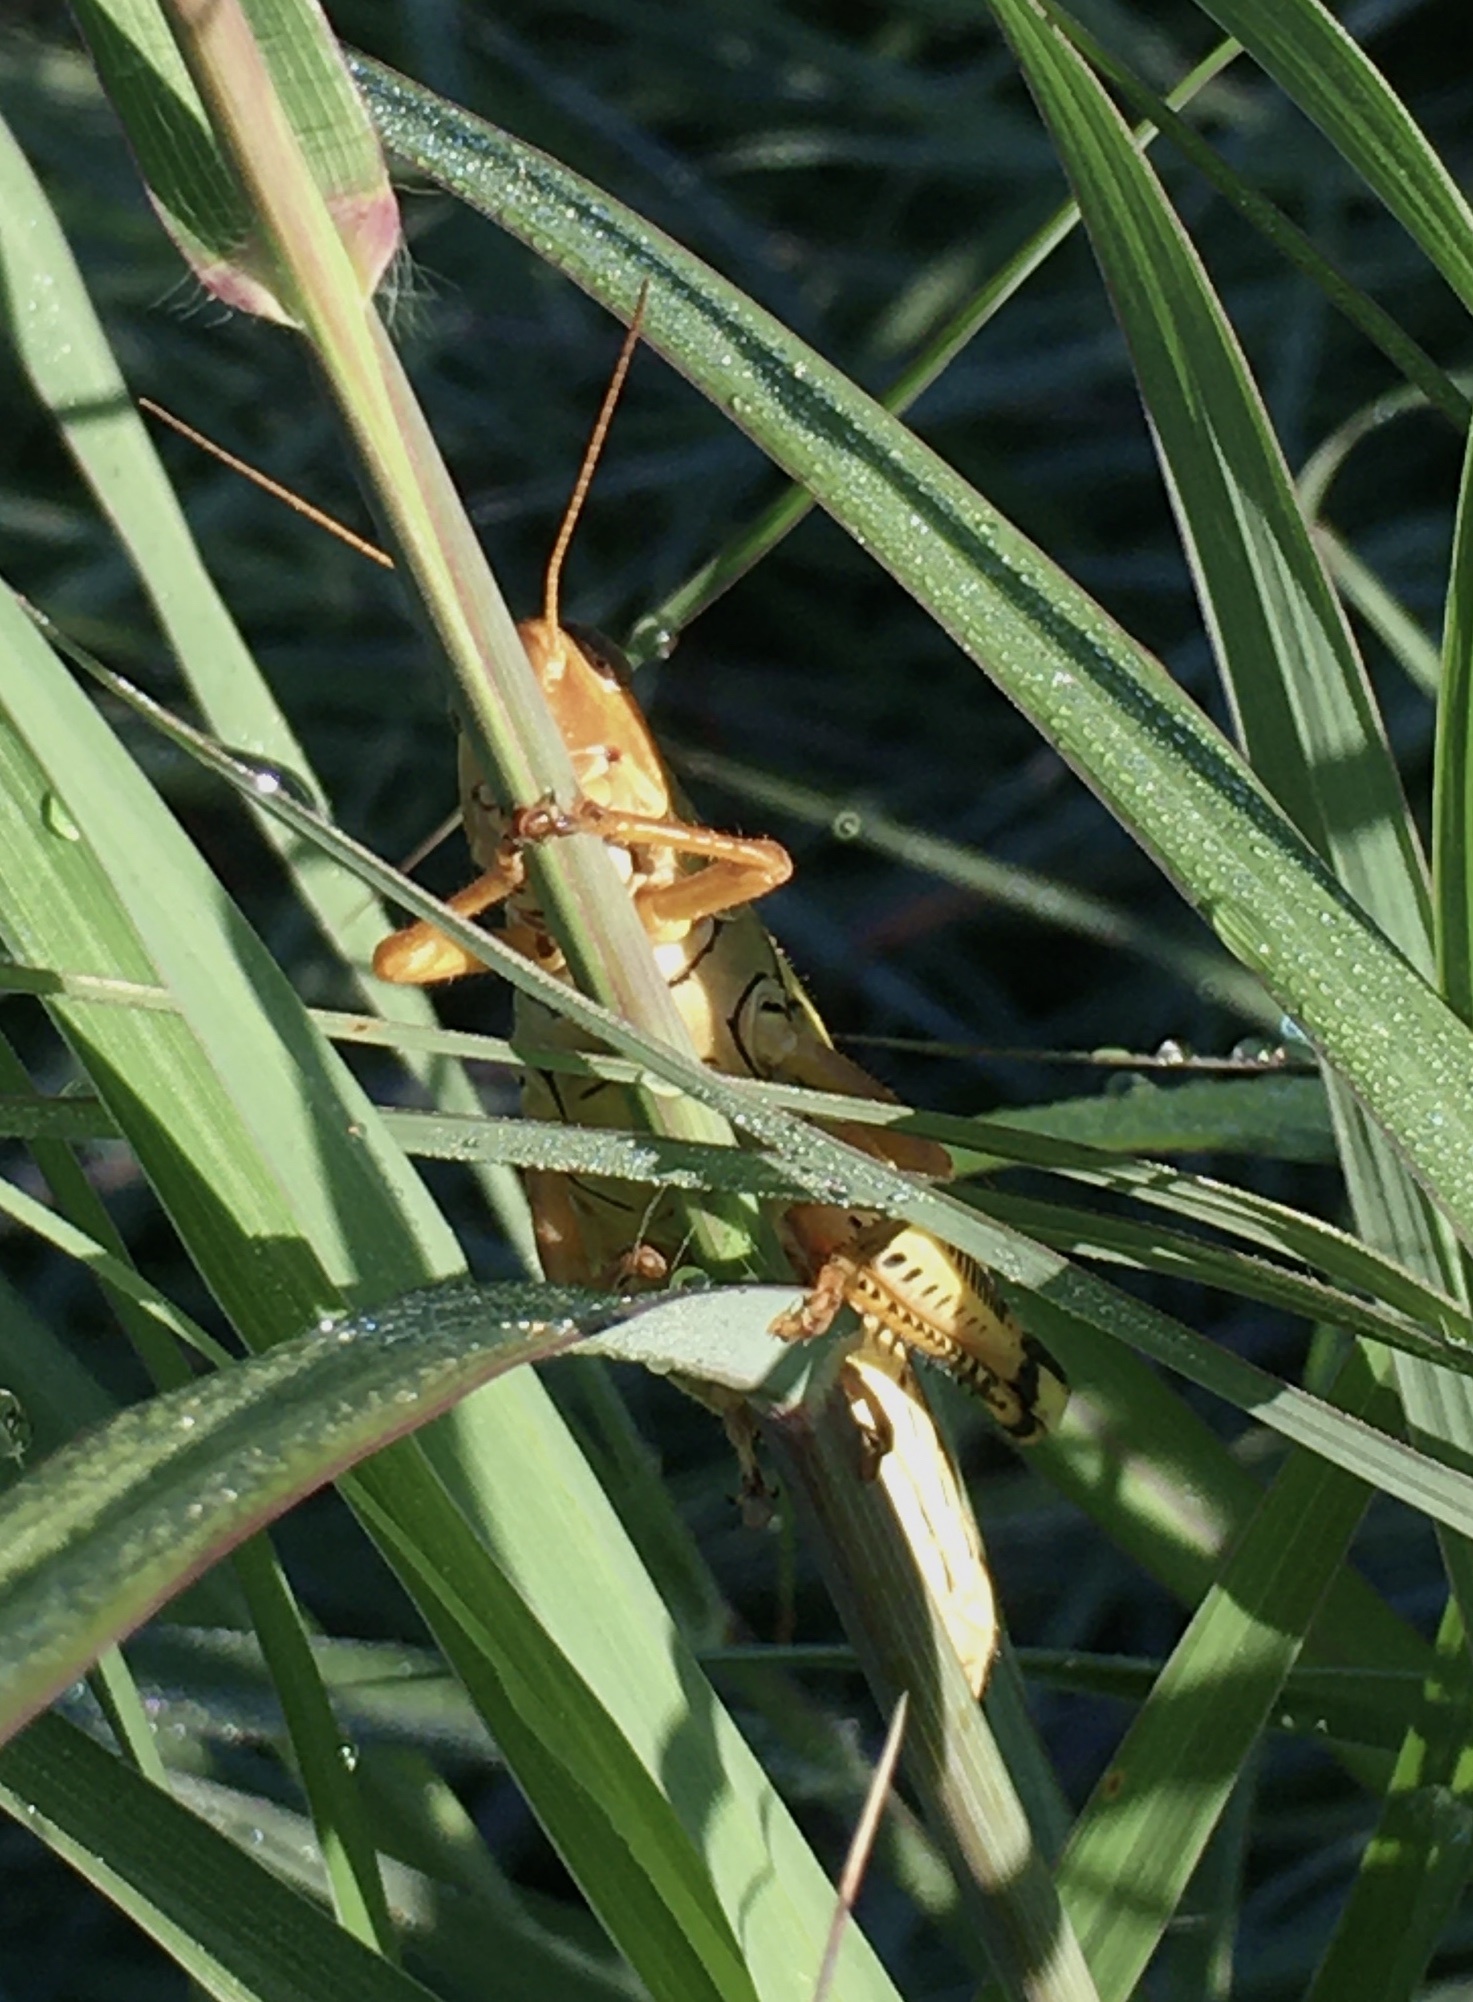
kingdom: Animalia
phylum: Arthropoda
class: Insecta
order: Orthoptera
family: Acrididae
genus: Melanoplus
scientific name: Melanoplus differentialis
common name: Differential grasshopper
